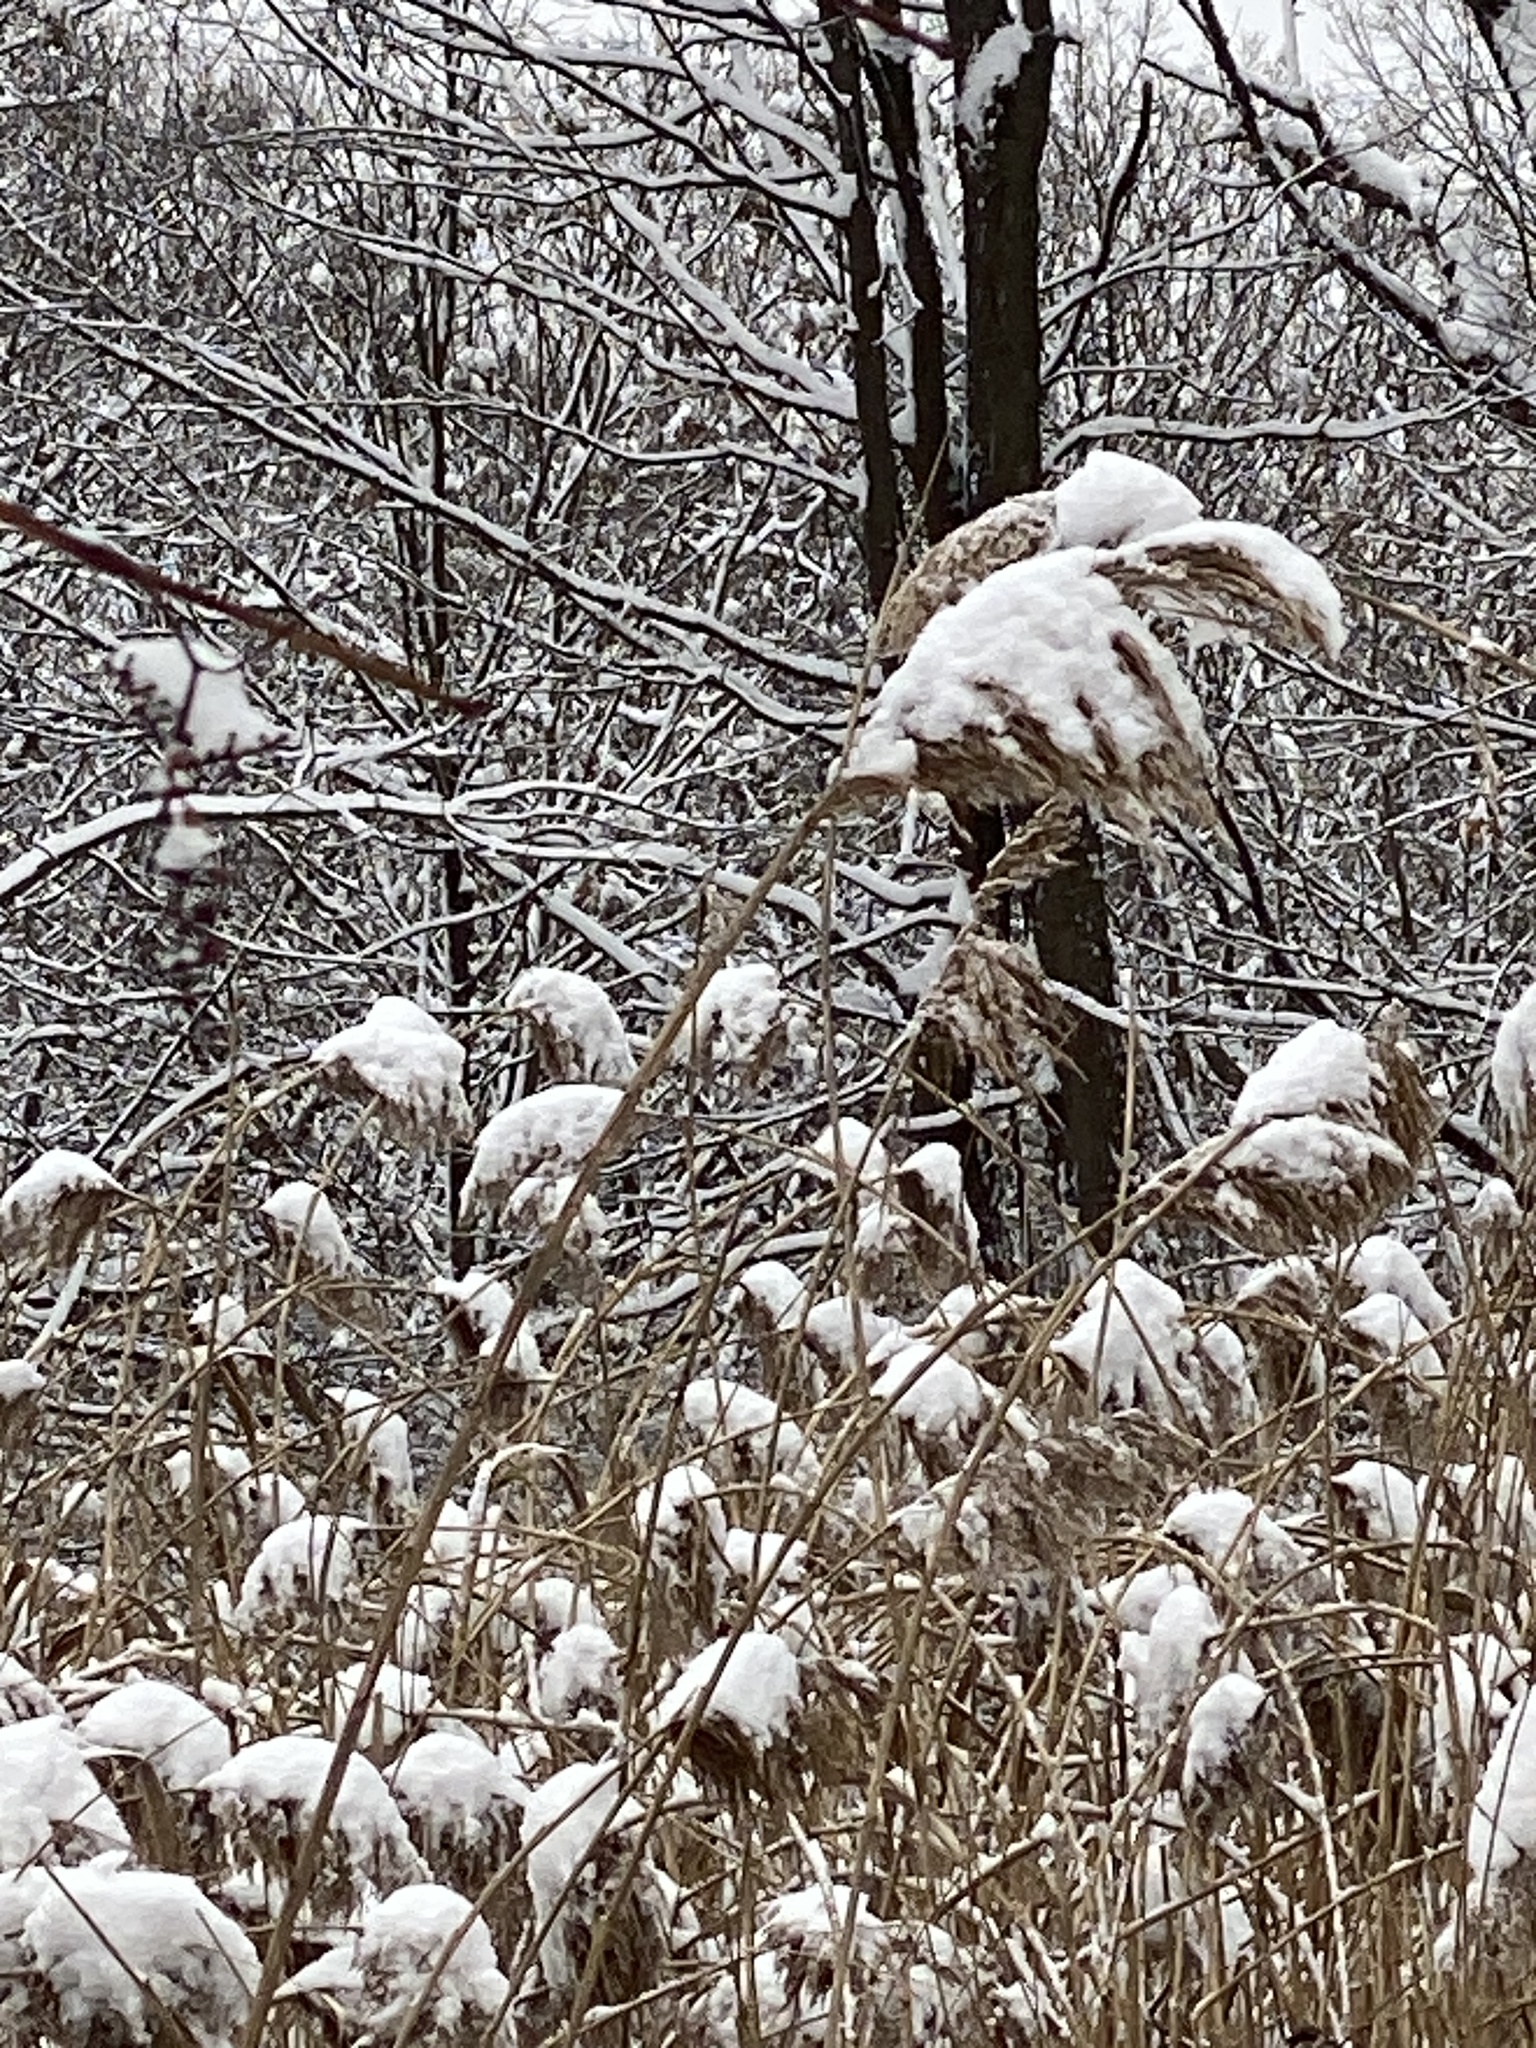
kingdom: Plantae
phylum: Tracheophyta
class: Liliopsida
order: Poales
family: Poaceae
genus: Phragmites
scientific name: Phragmites australis
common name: Common reed
